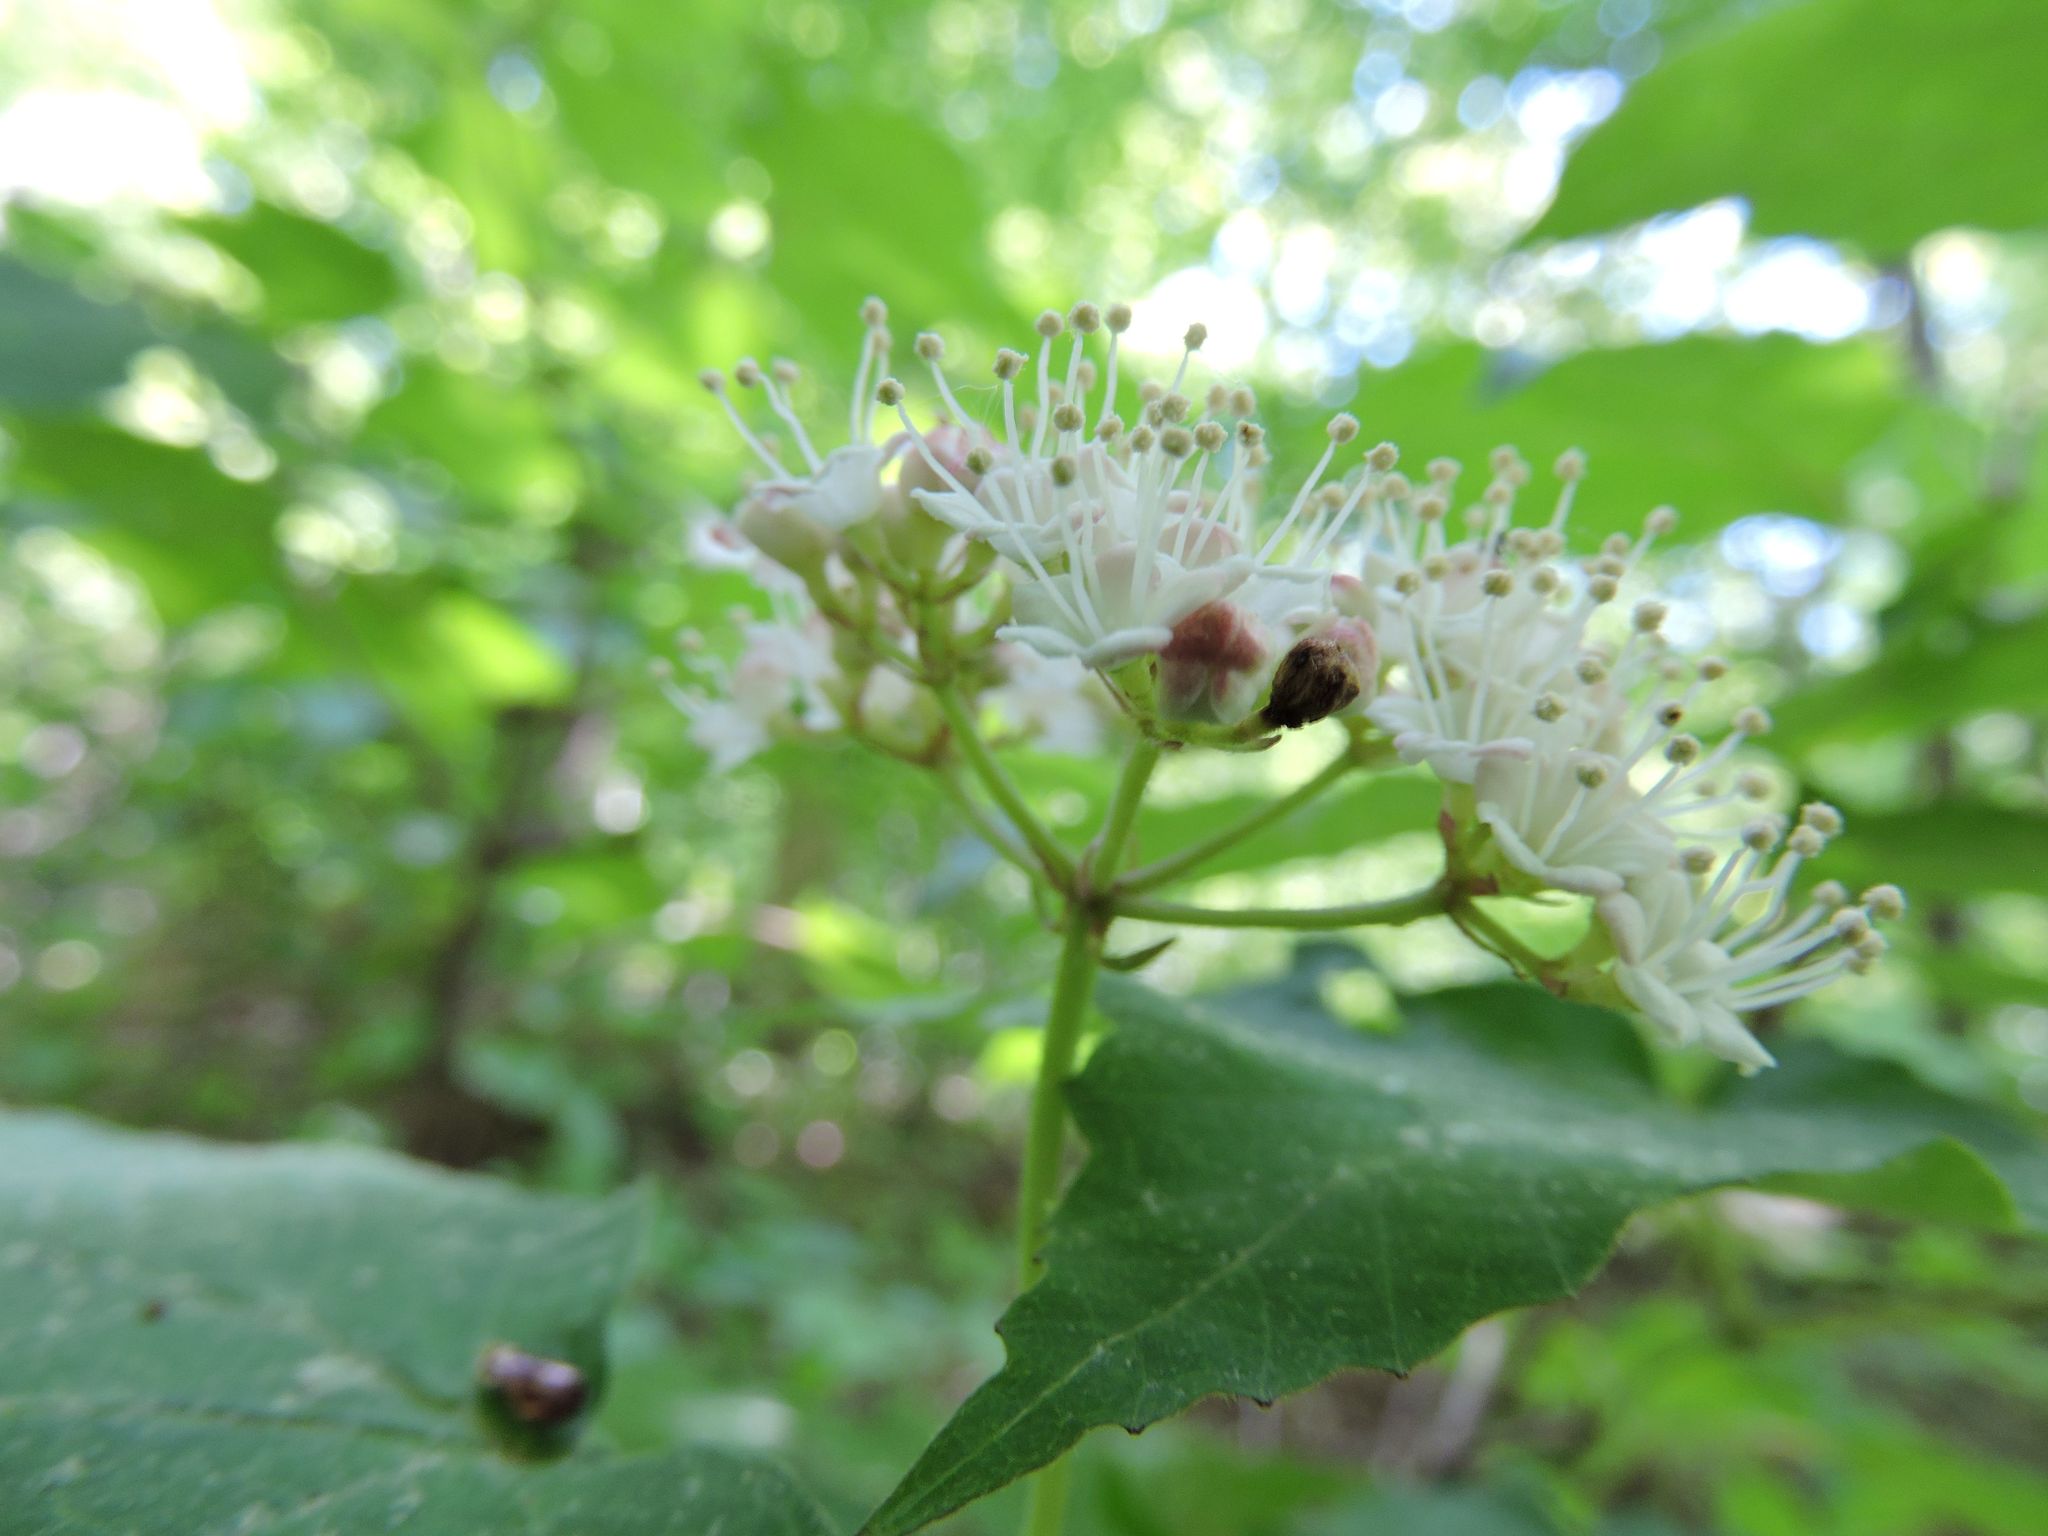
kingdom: Plantae
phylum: Tracheophyta
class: Magnoliopsida
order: Dipsacales
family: Viburnaceae
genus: Viburnum
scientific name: Viburnum acerifolium
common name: Dockmackie
